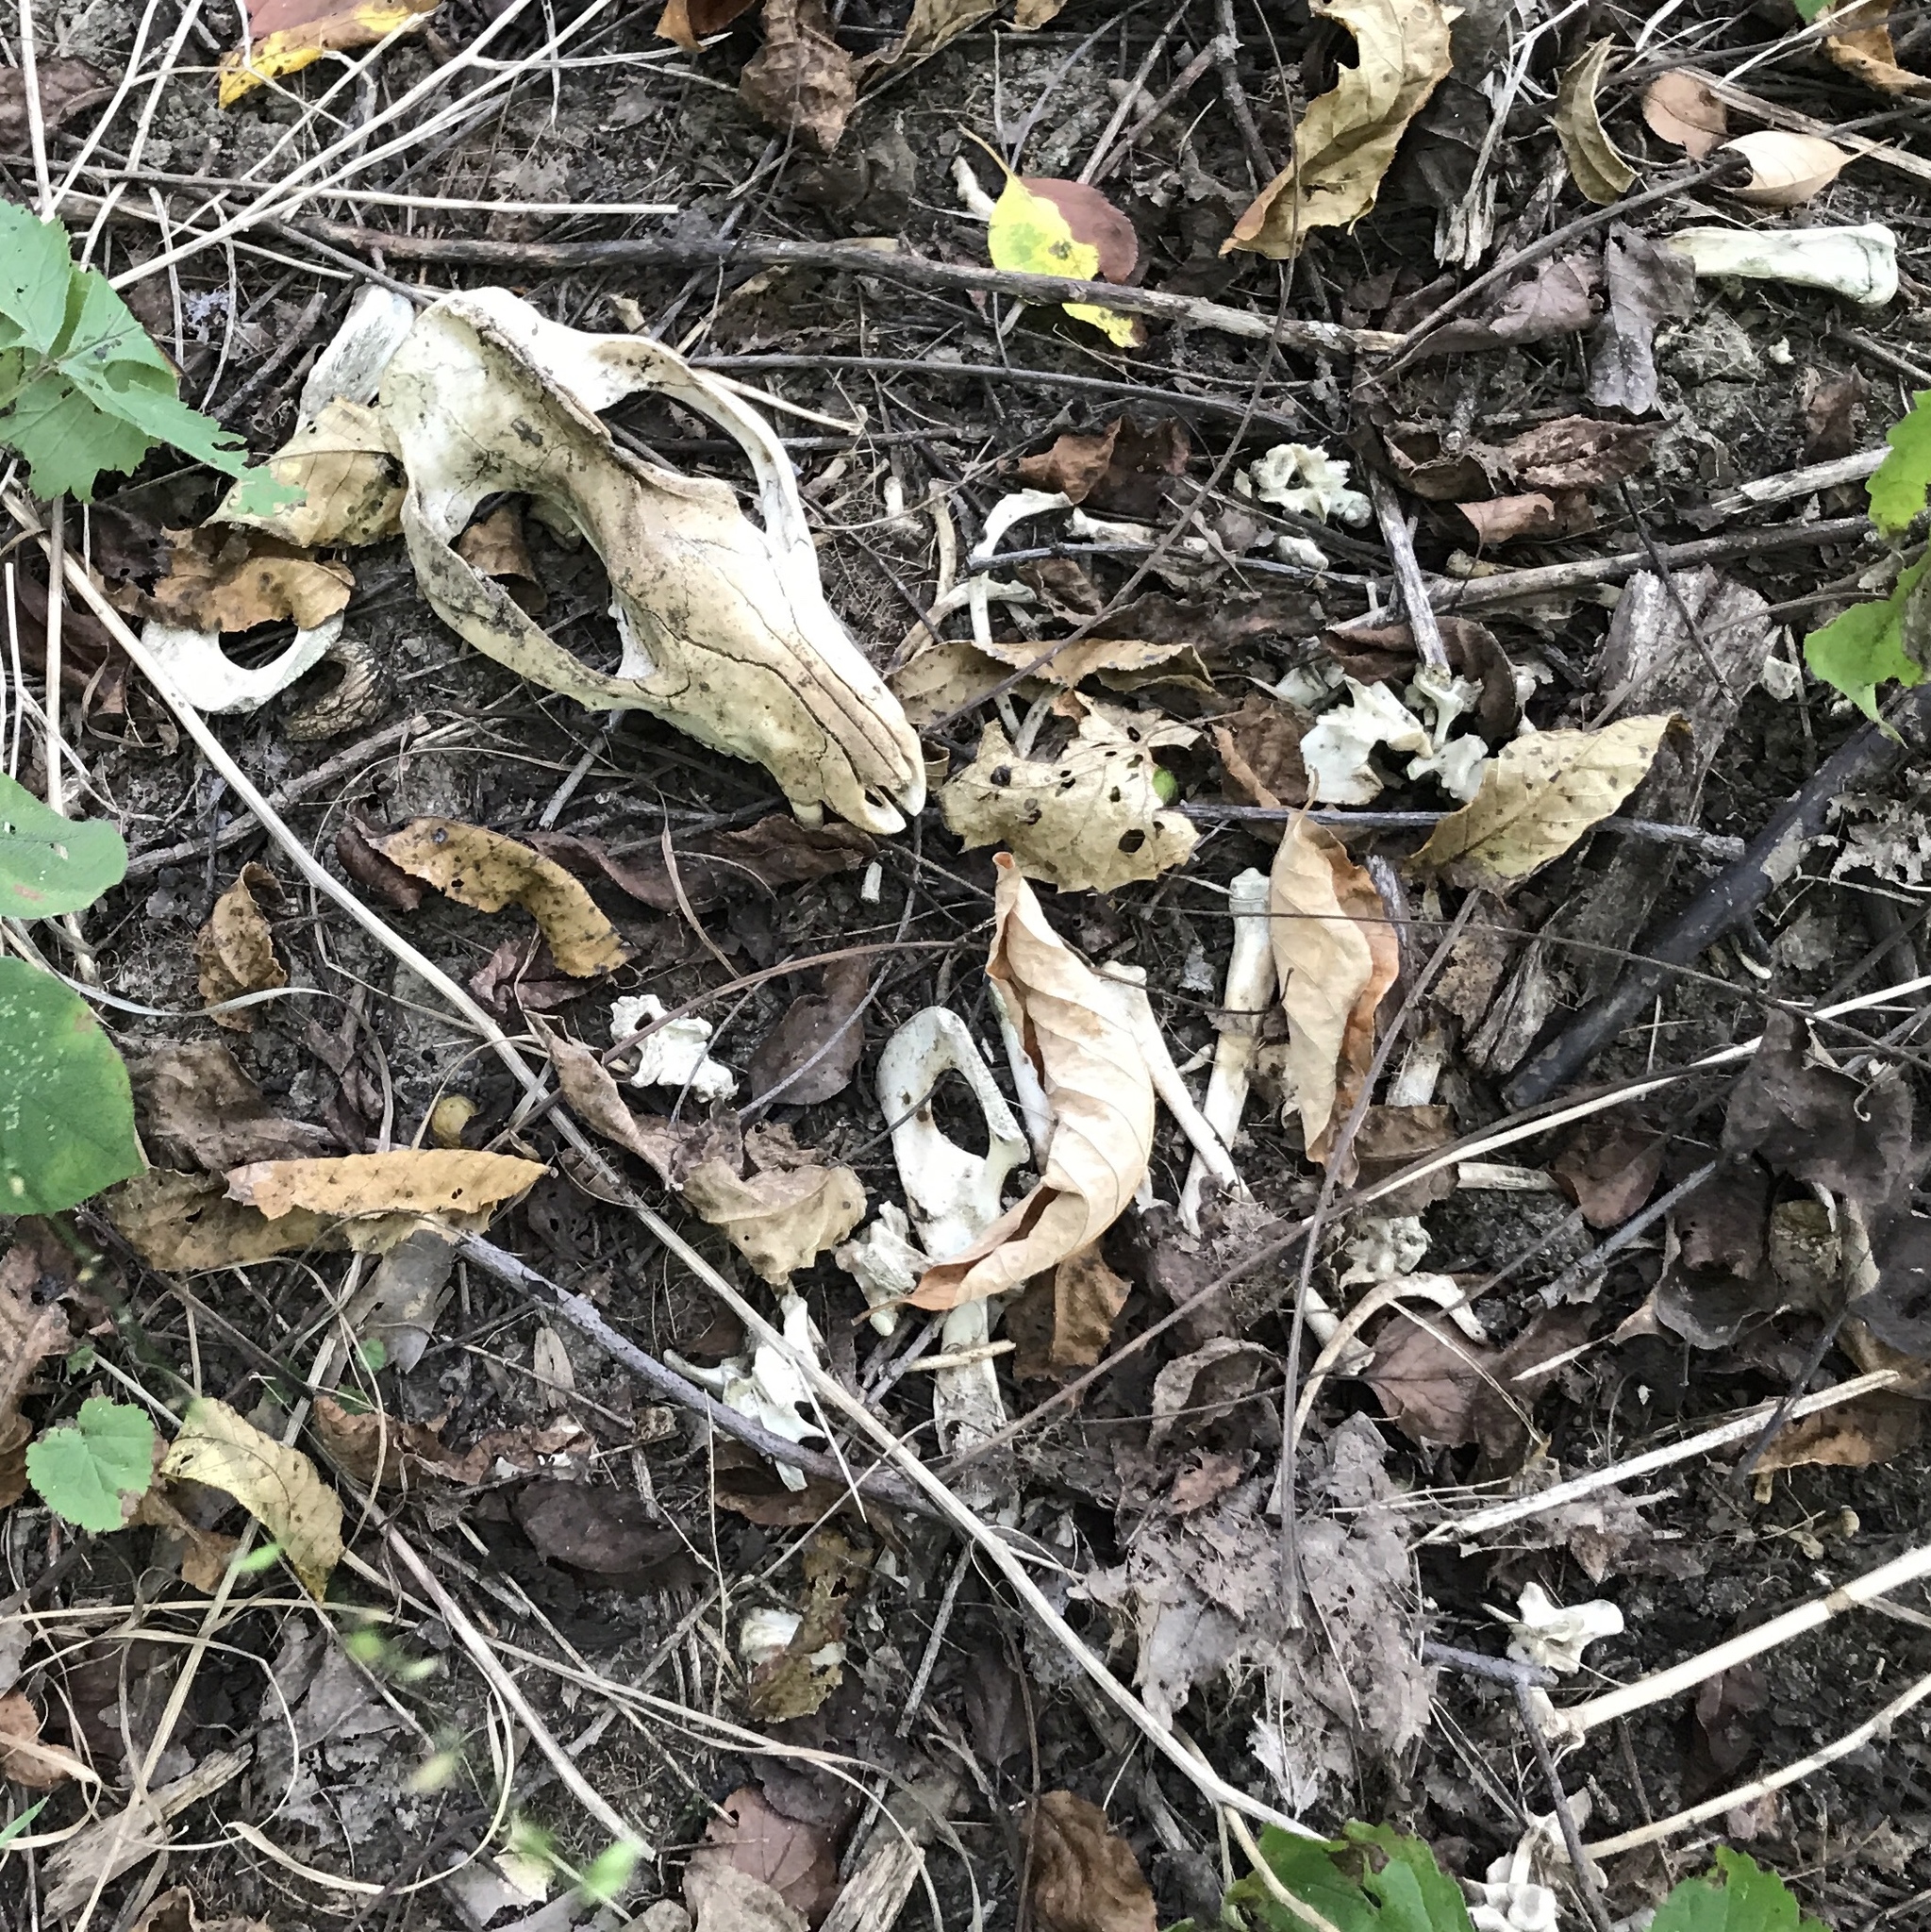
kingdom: Animalia
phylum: Chordata
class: Mammalia
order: Didelphimorphia
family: Didelphidae
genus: Didelphis
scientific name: Didelphis virginiana
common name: Virginia opossum
